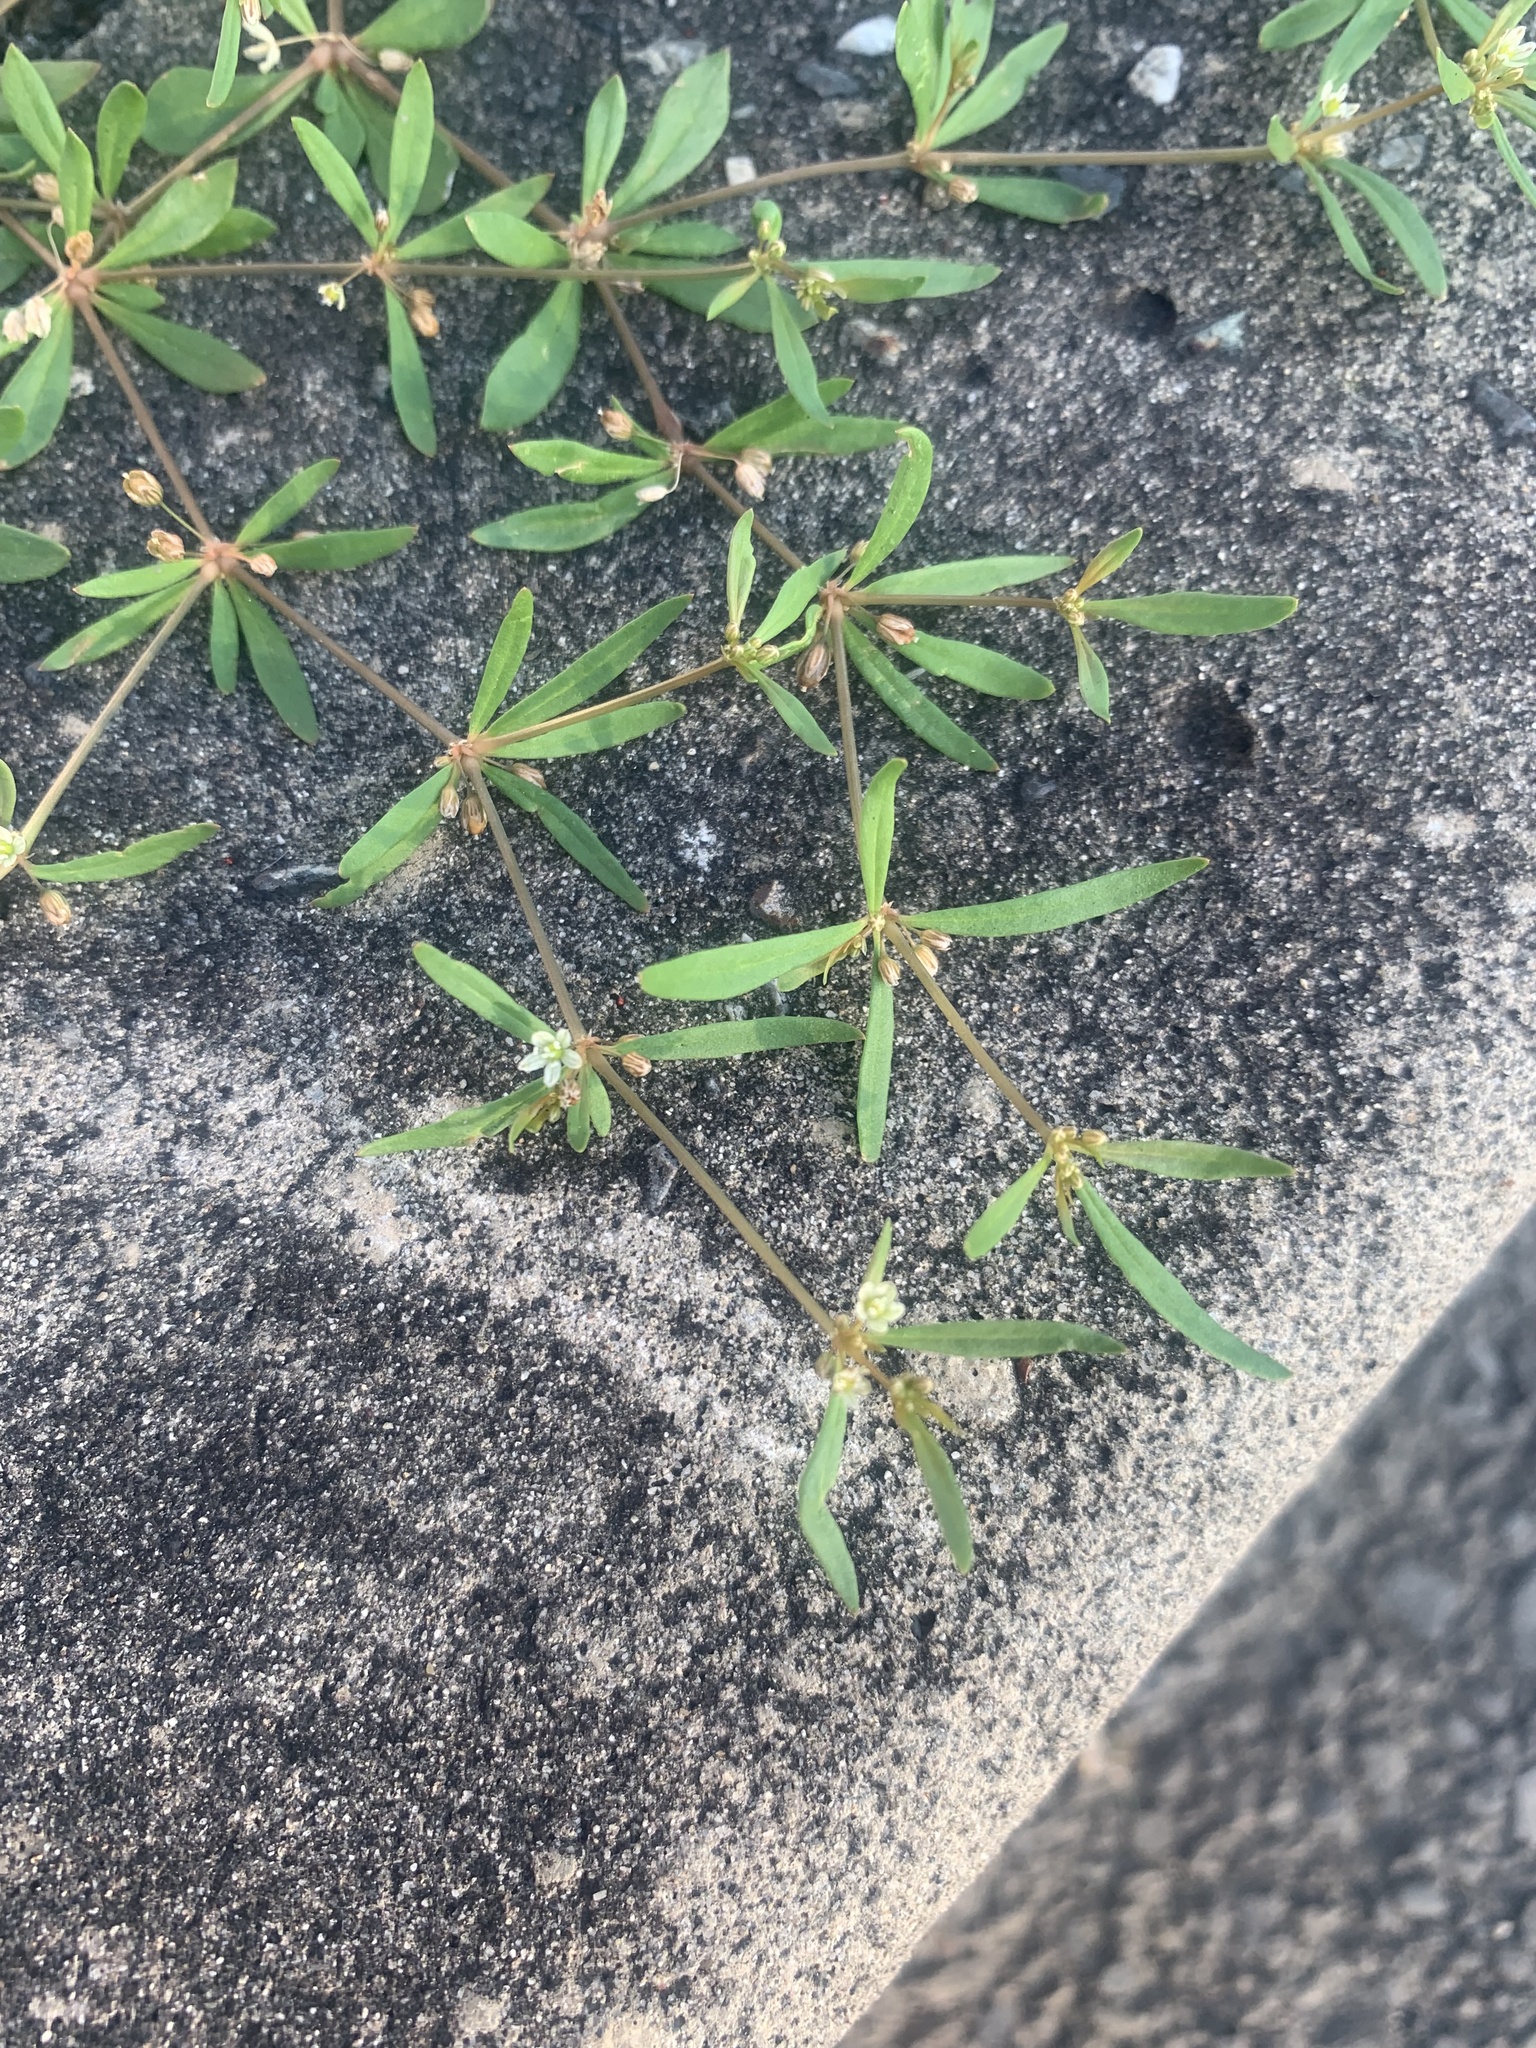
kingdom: Plantae
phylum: Tracheophyta
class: Magnoliopsida
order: Caryophyllales
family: Molluginaceae
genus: Mollugo
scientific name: Mollugo verticillata
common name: Green carpetweed
